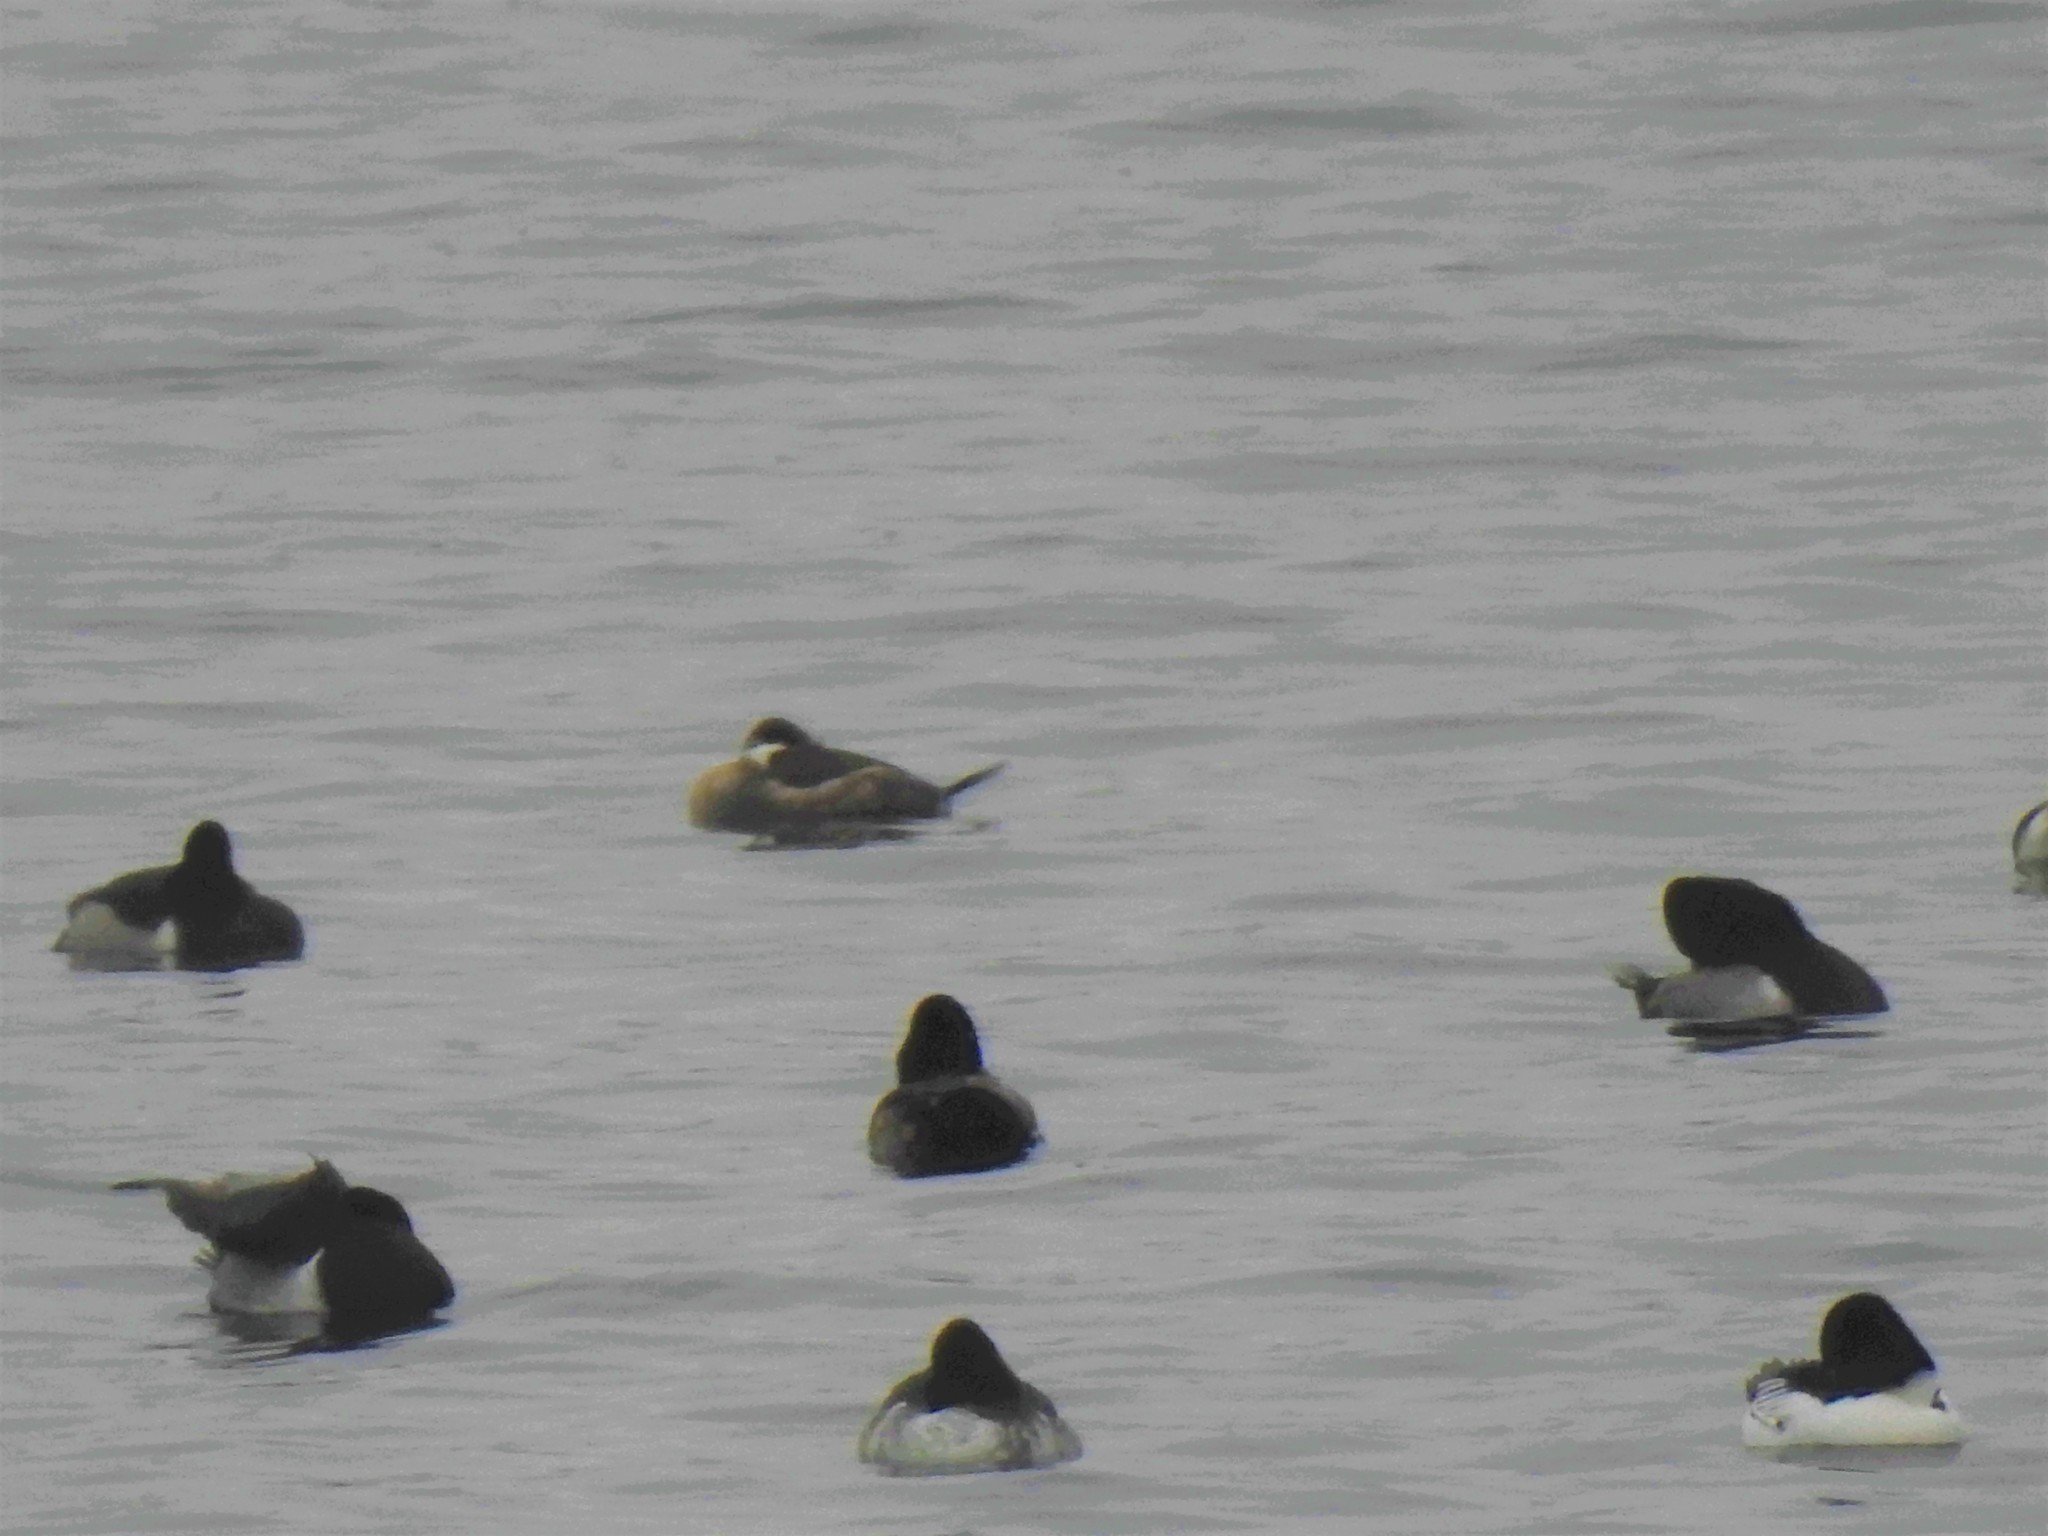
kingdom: Animalia
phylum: Chordata
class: Aves
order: Anseriformes
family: Anatidae
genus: Oxyura
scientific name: Oxyura jamaicensis
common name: Ruddy duck
